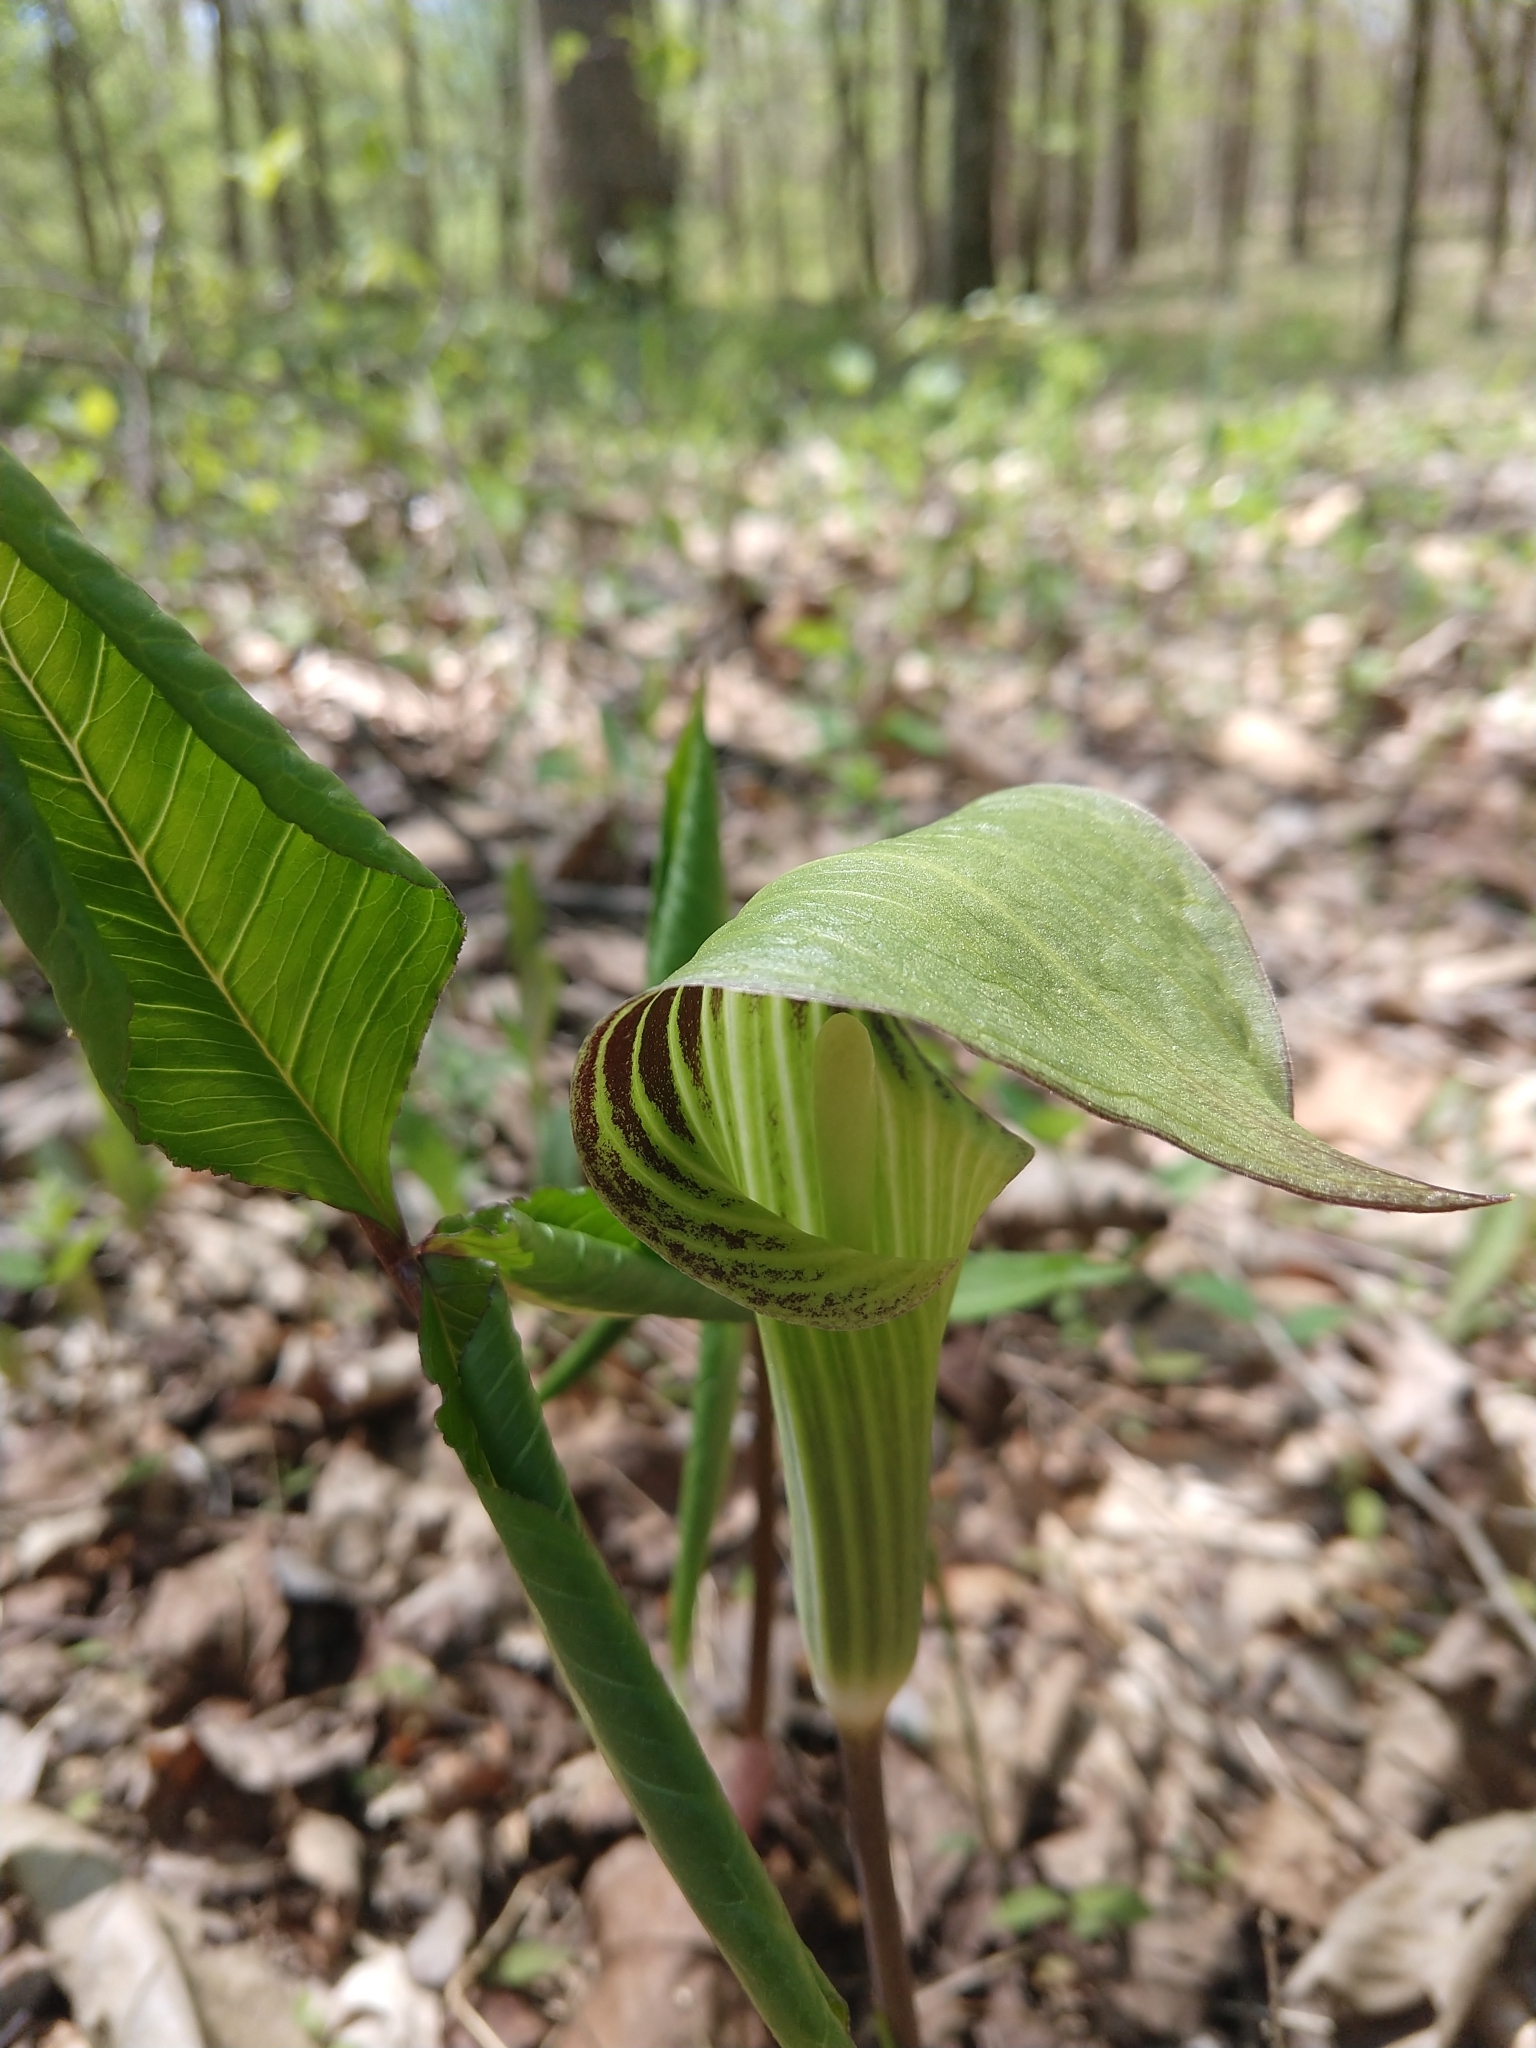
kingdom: Plantae
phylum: Tracheophyta
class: Liliopsida
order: Alismatales
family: Araceae
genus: Arisaema
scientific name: Arisaema triphyllum
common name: Jack-in-the-pulpit
